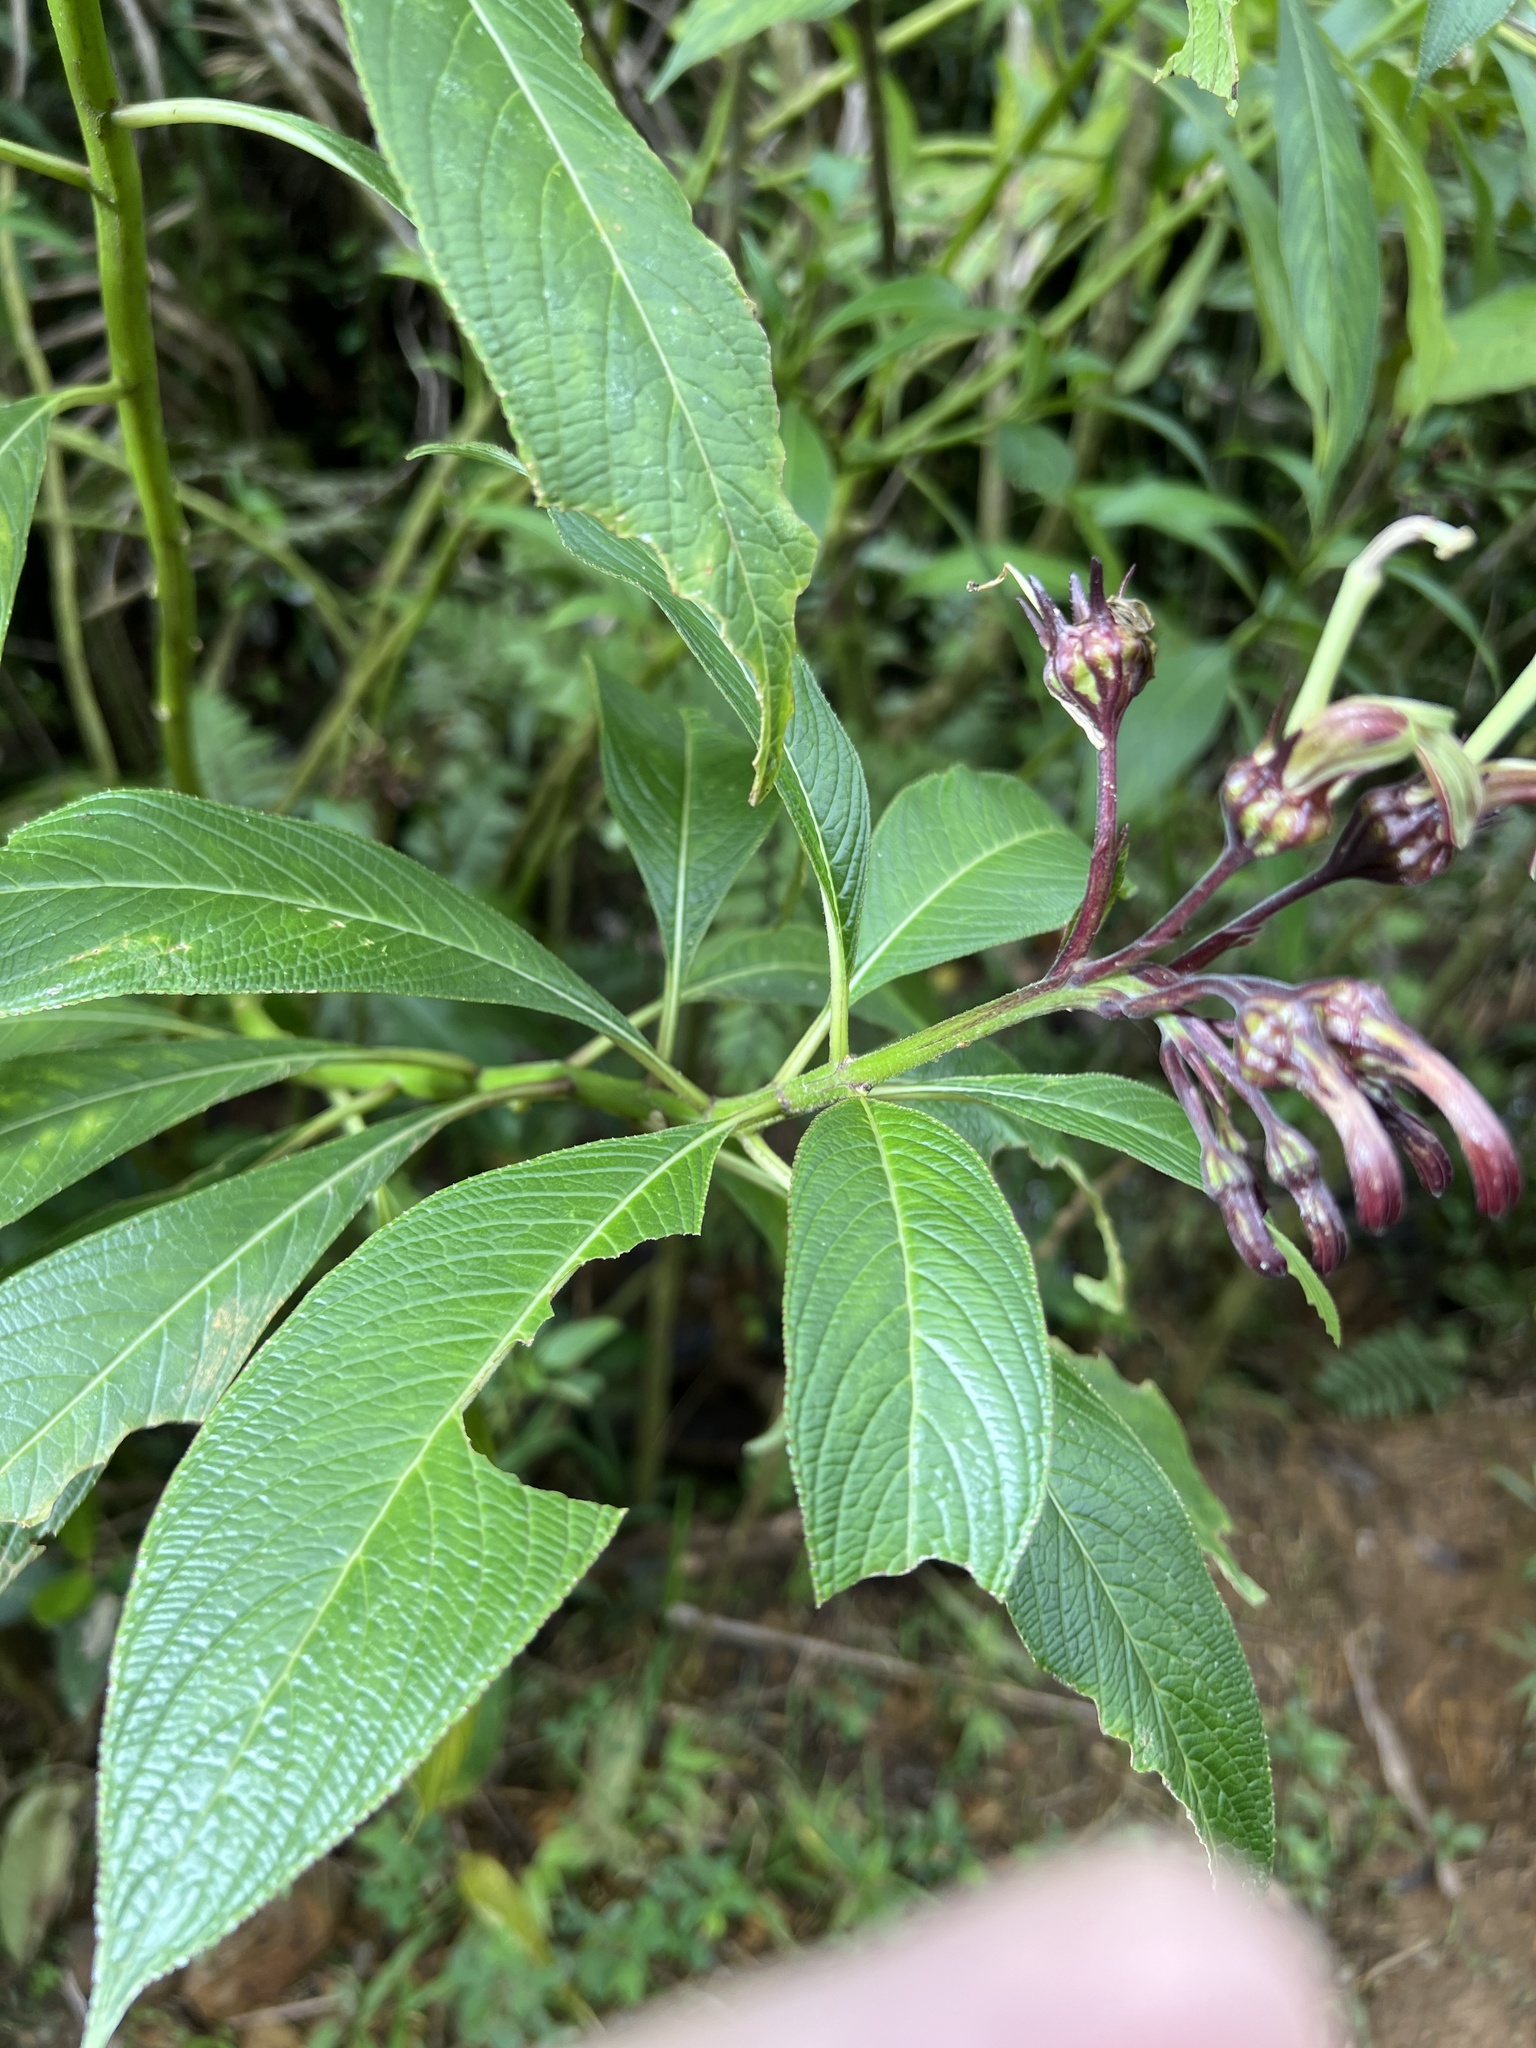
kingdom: Plantae
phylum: Tracheophyta
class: Magnoliopsida
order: Asterales
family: Campanulaceae
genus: Lobelia
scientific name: Lobelia portoricensis
